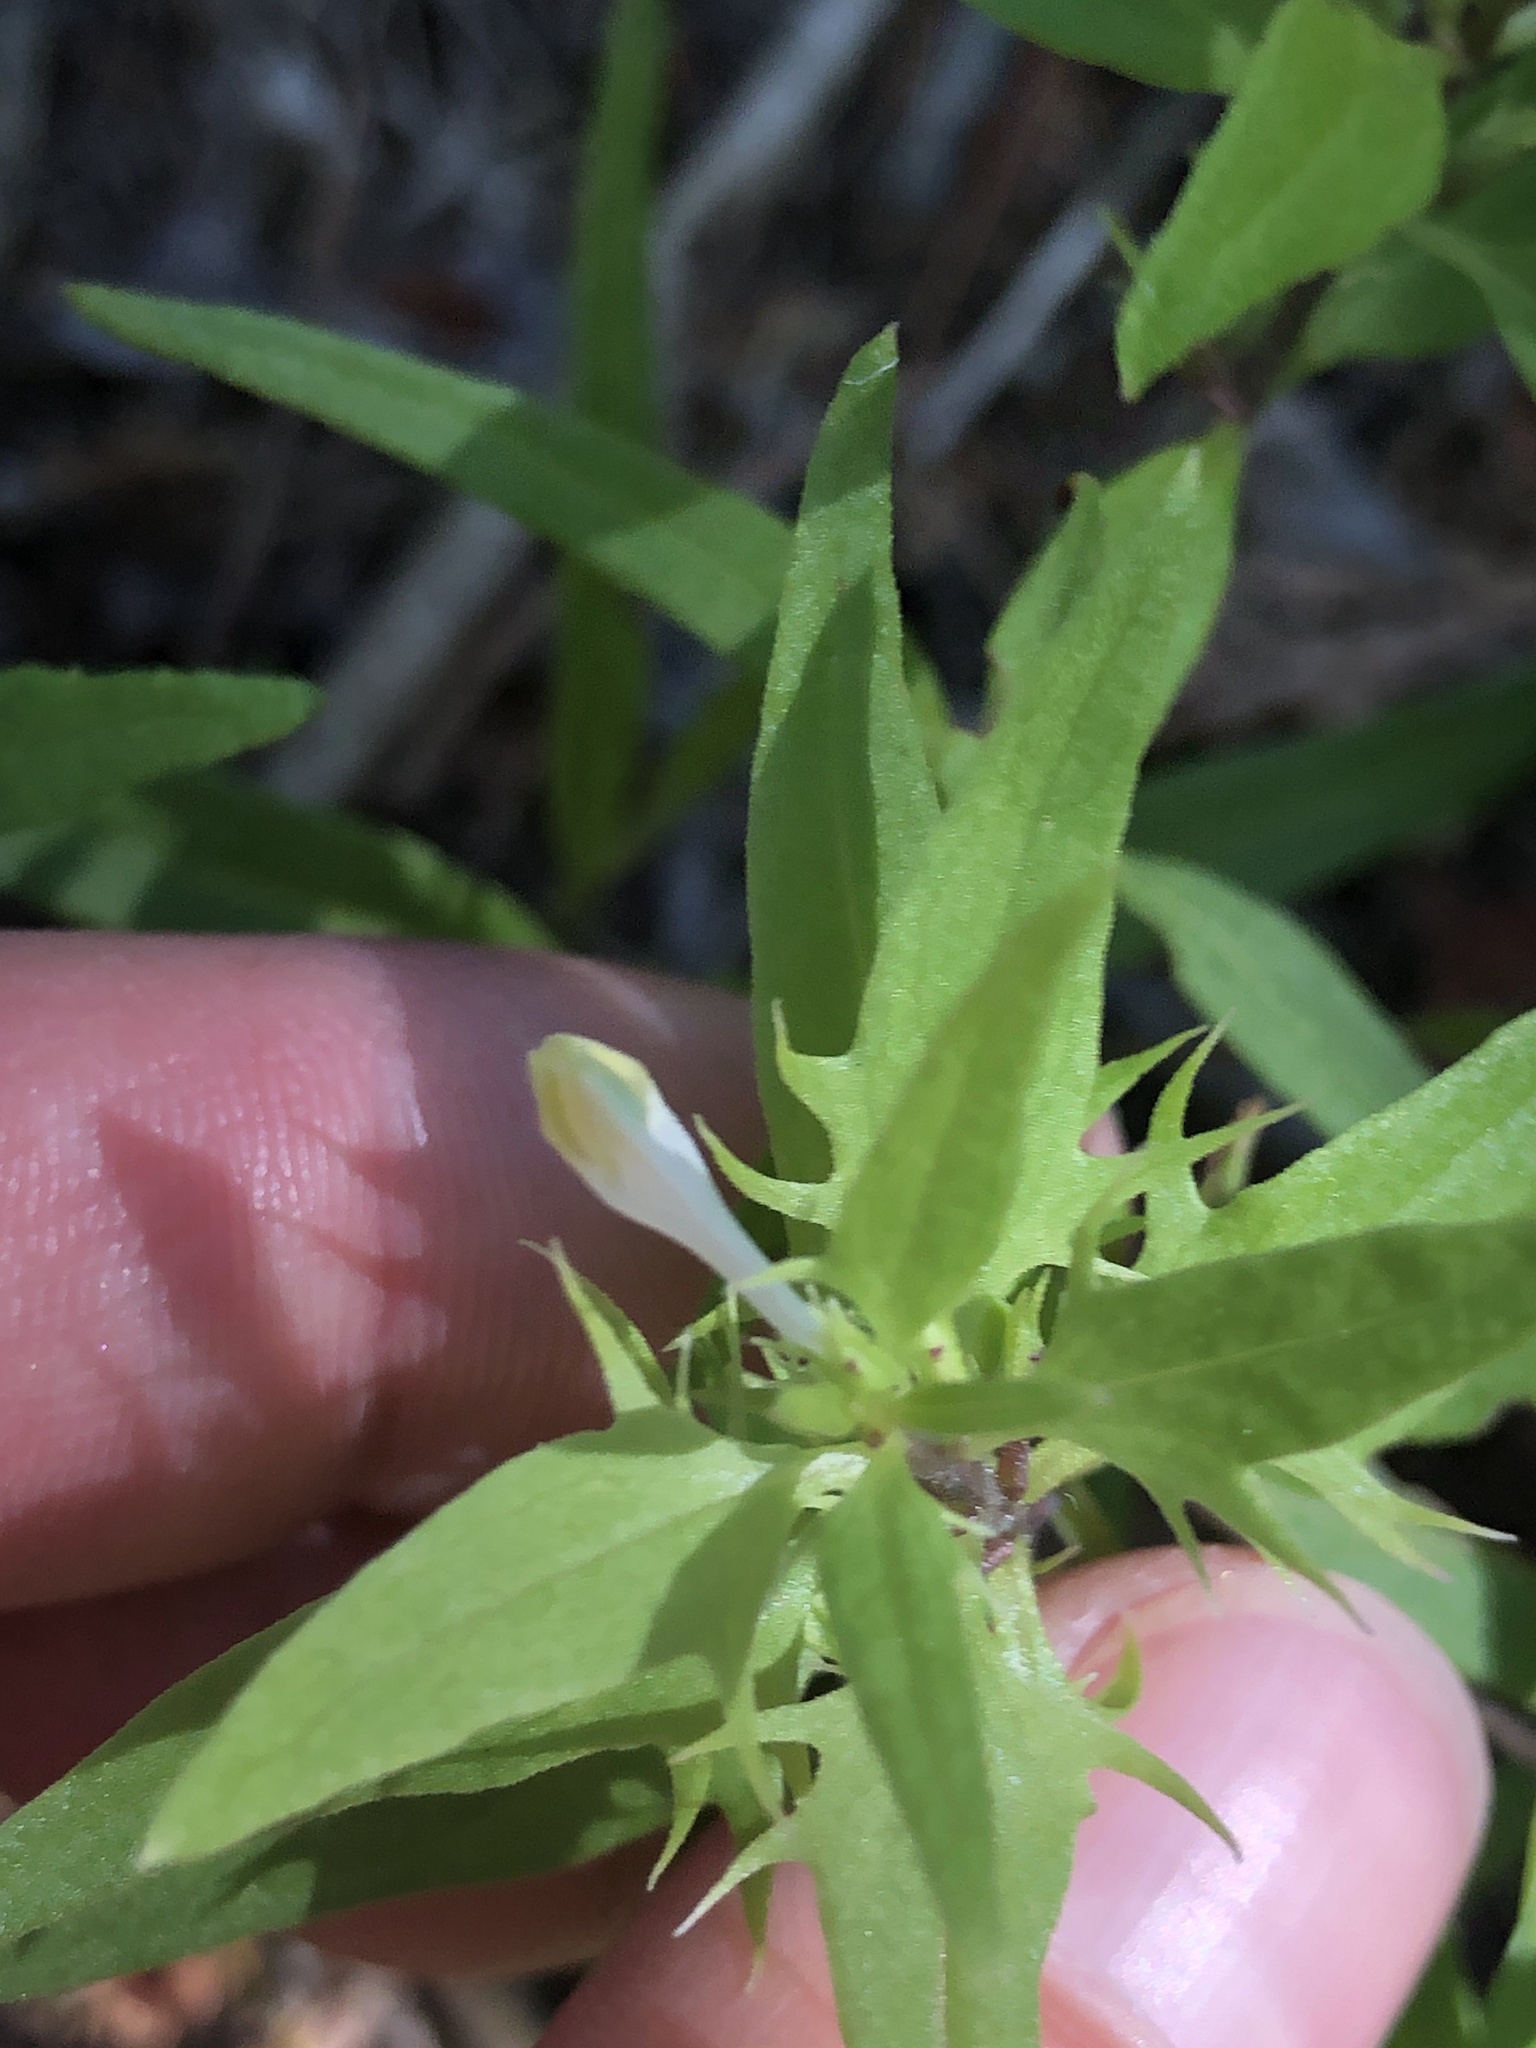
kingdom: Plantae
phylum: Tracheophyta
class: Magnoliopsida
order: Lamiales
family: Orobanchaceae
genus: Melampyrum
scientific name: Melampyrum lineare
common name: American cow-wheat
